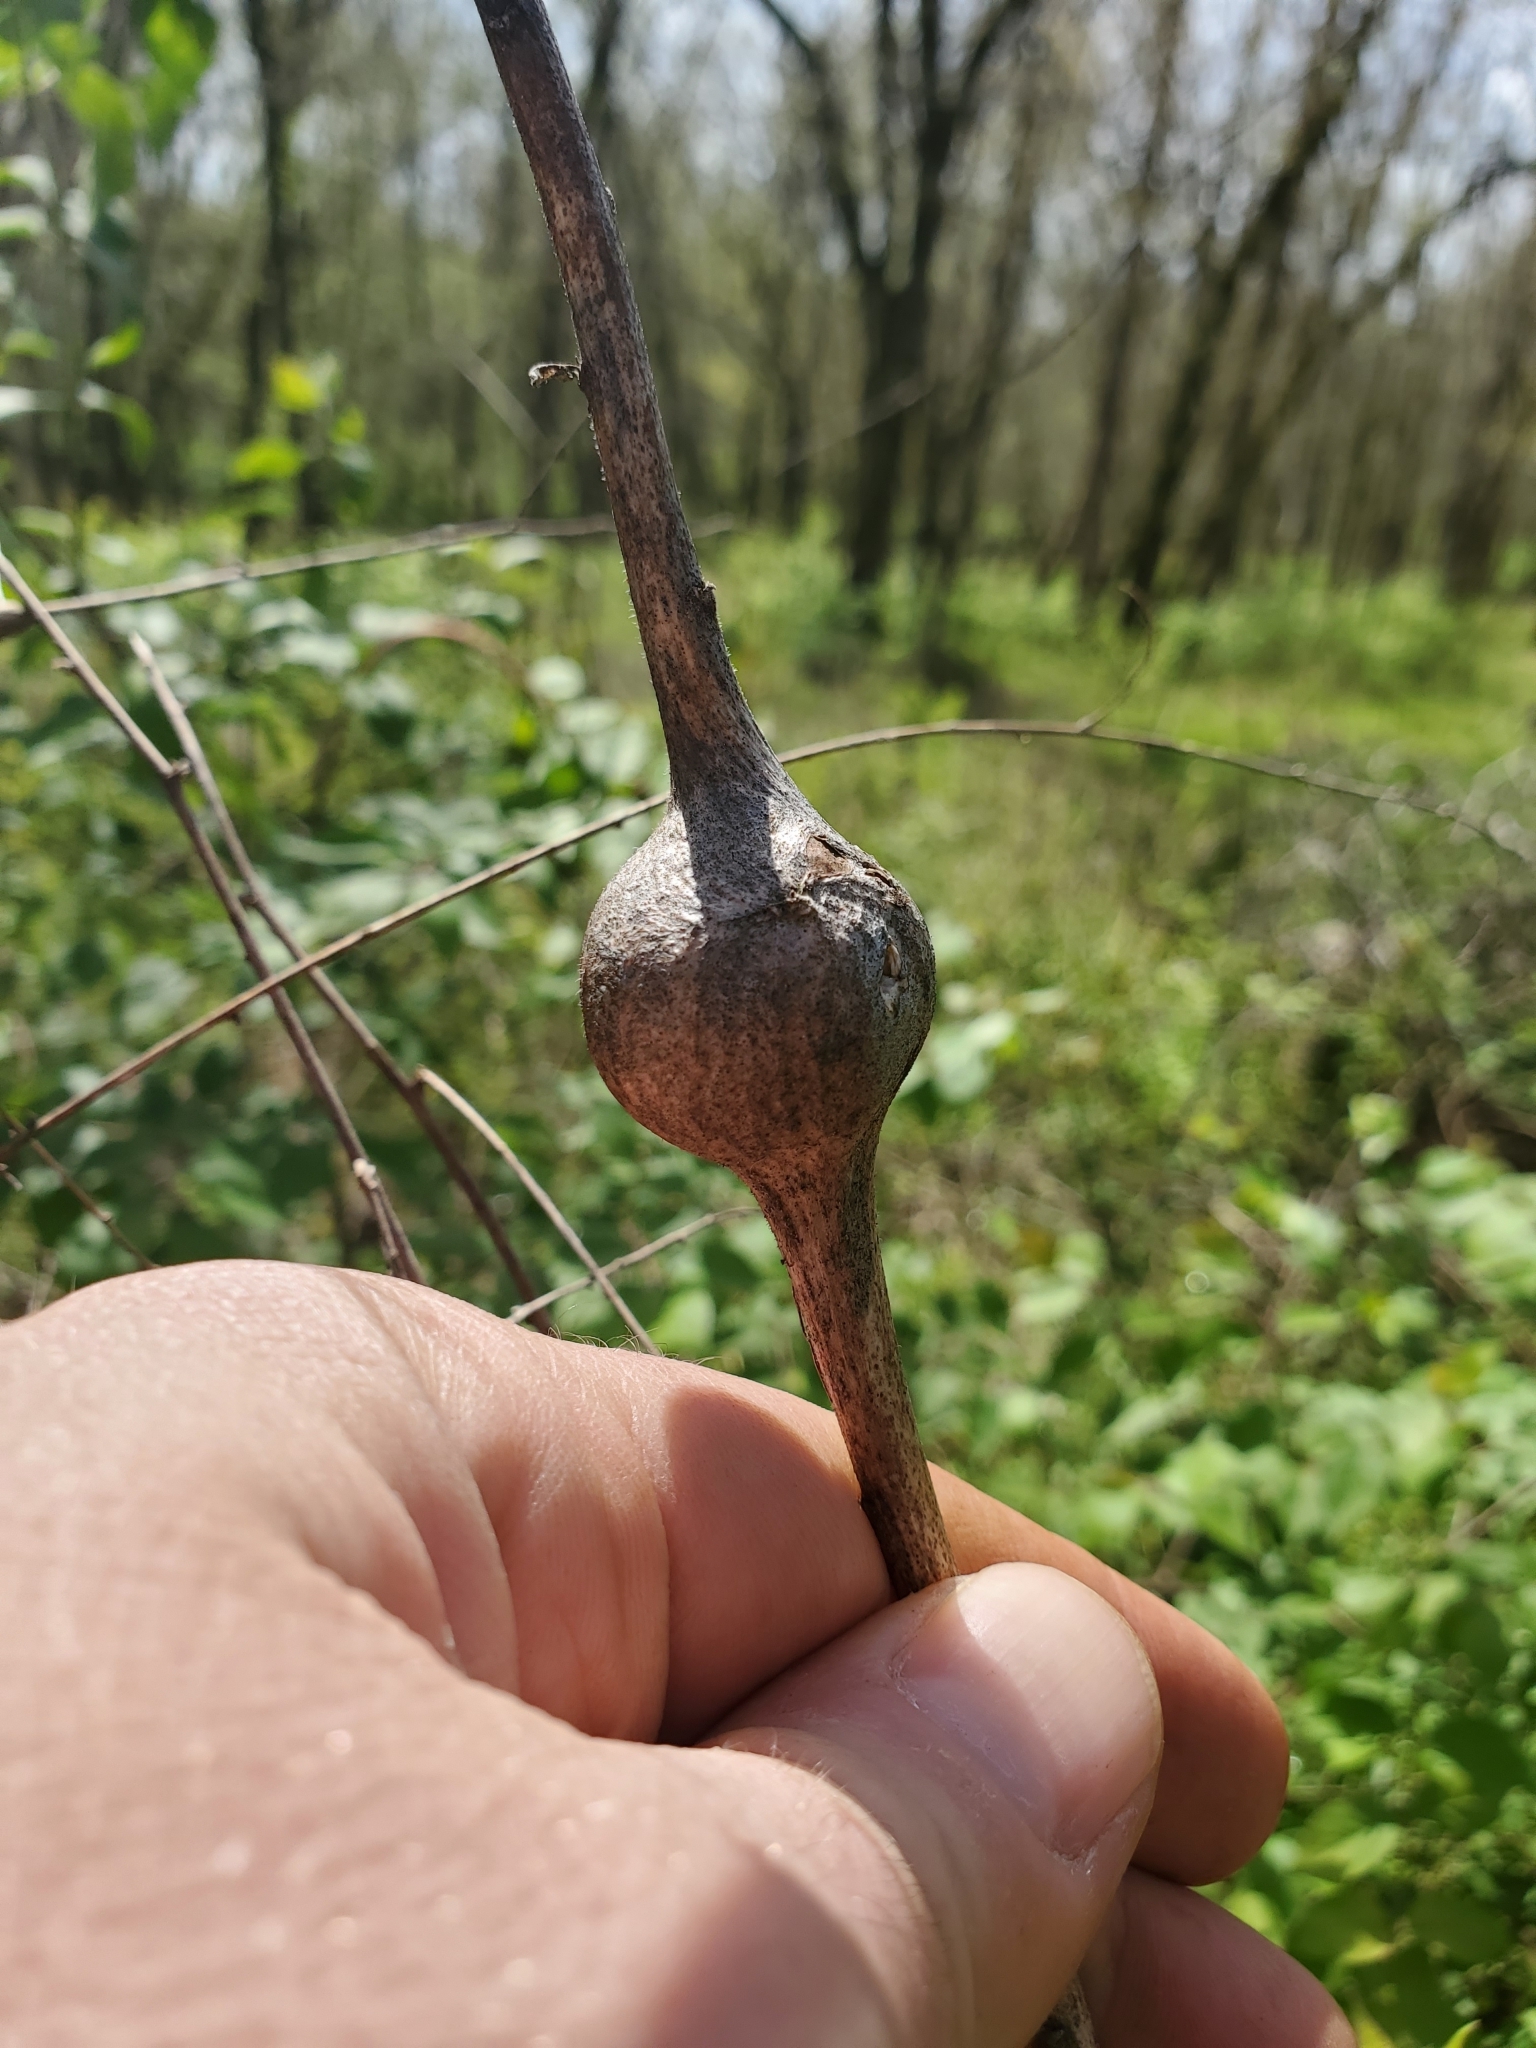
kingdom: Animalia
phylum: Arthropoda
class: Insecta
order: Diptera
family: Tephritidae
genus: Eurosta
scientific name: Eurosta solidaginis
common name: Goldenrod gall fly
